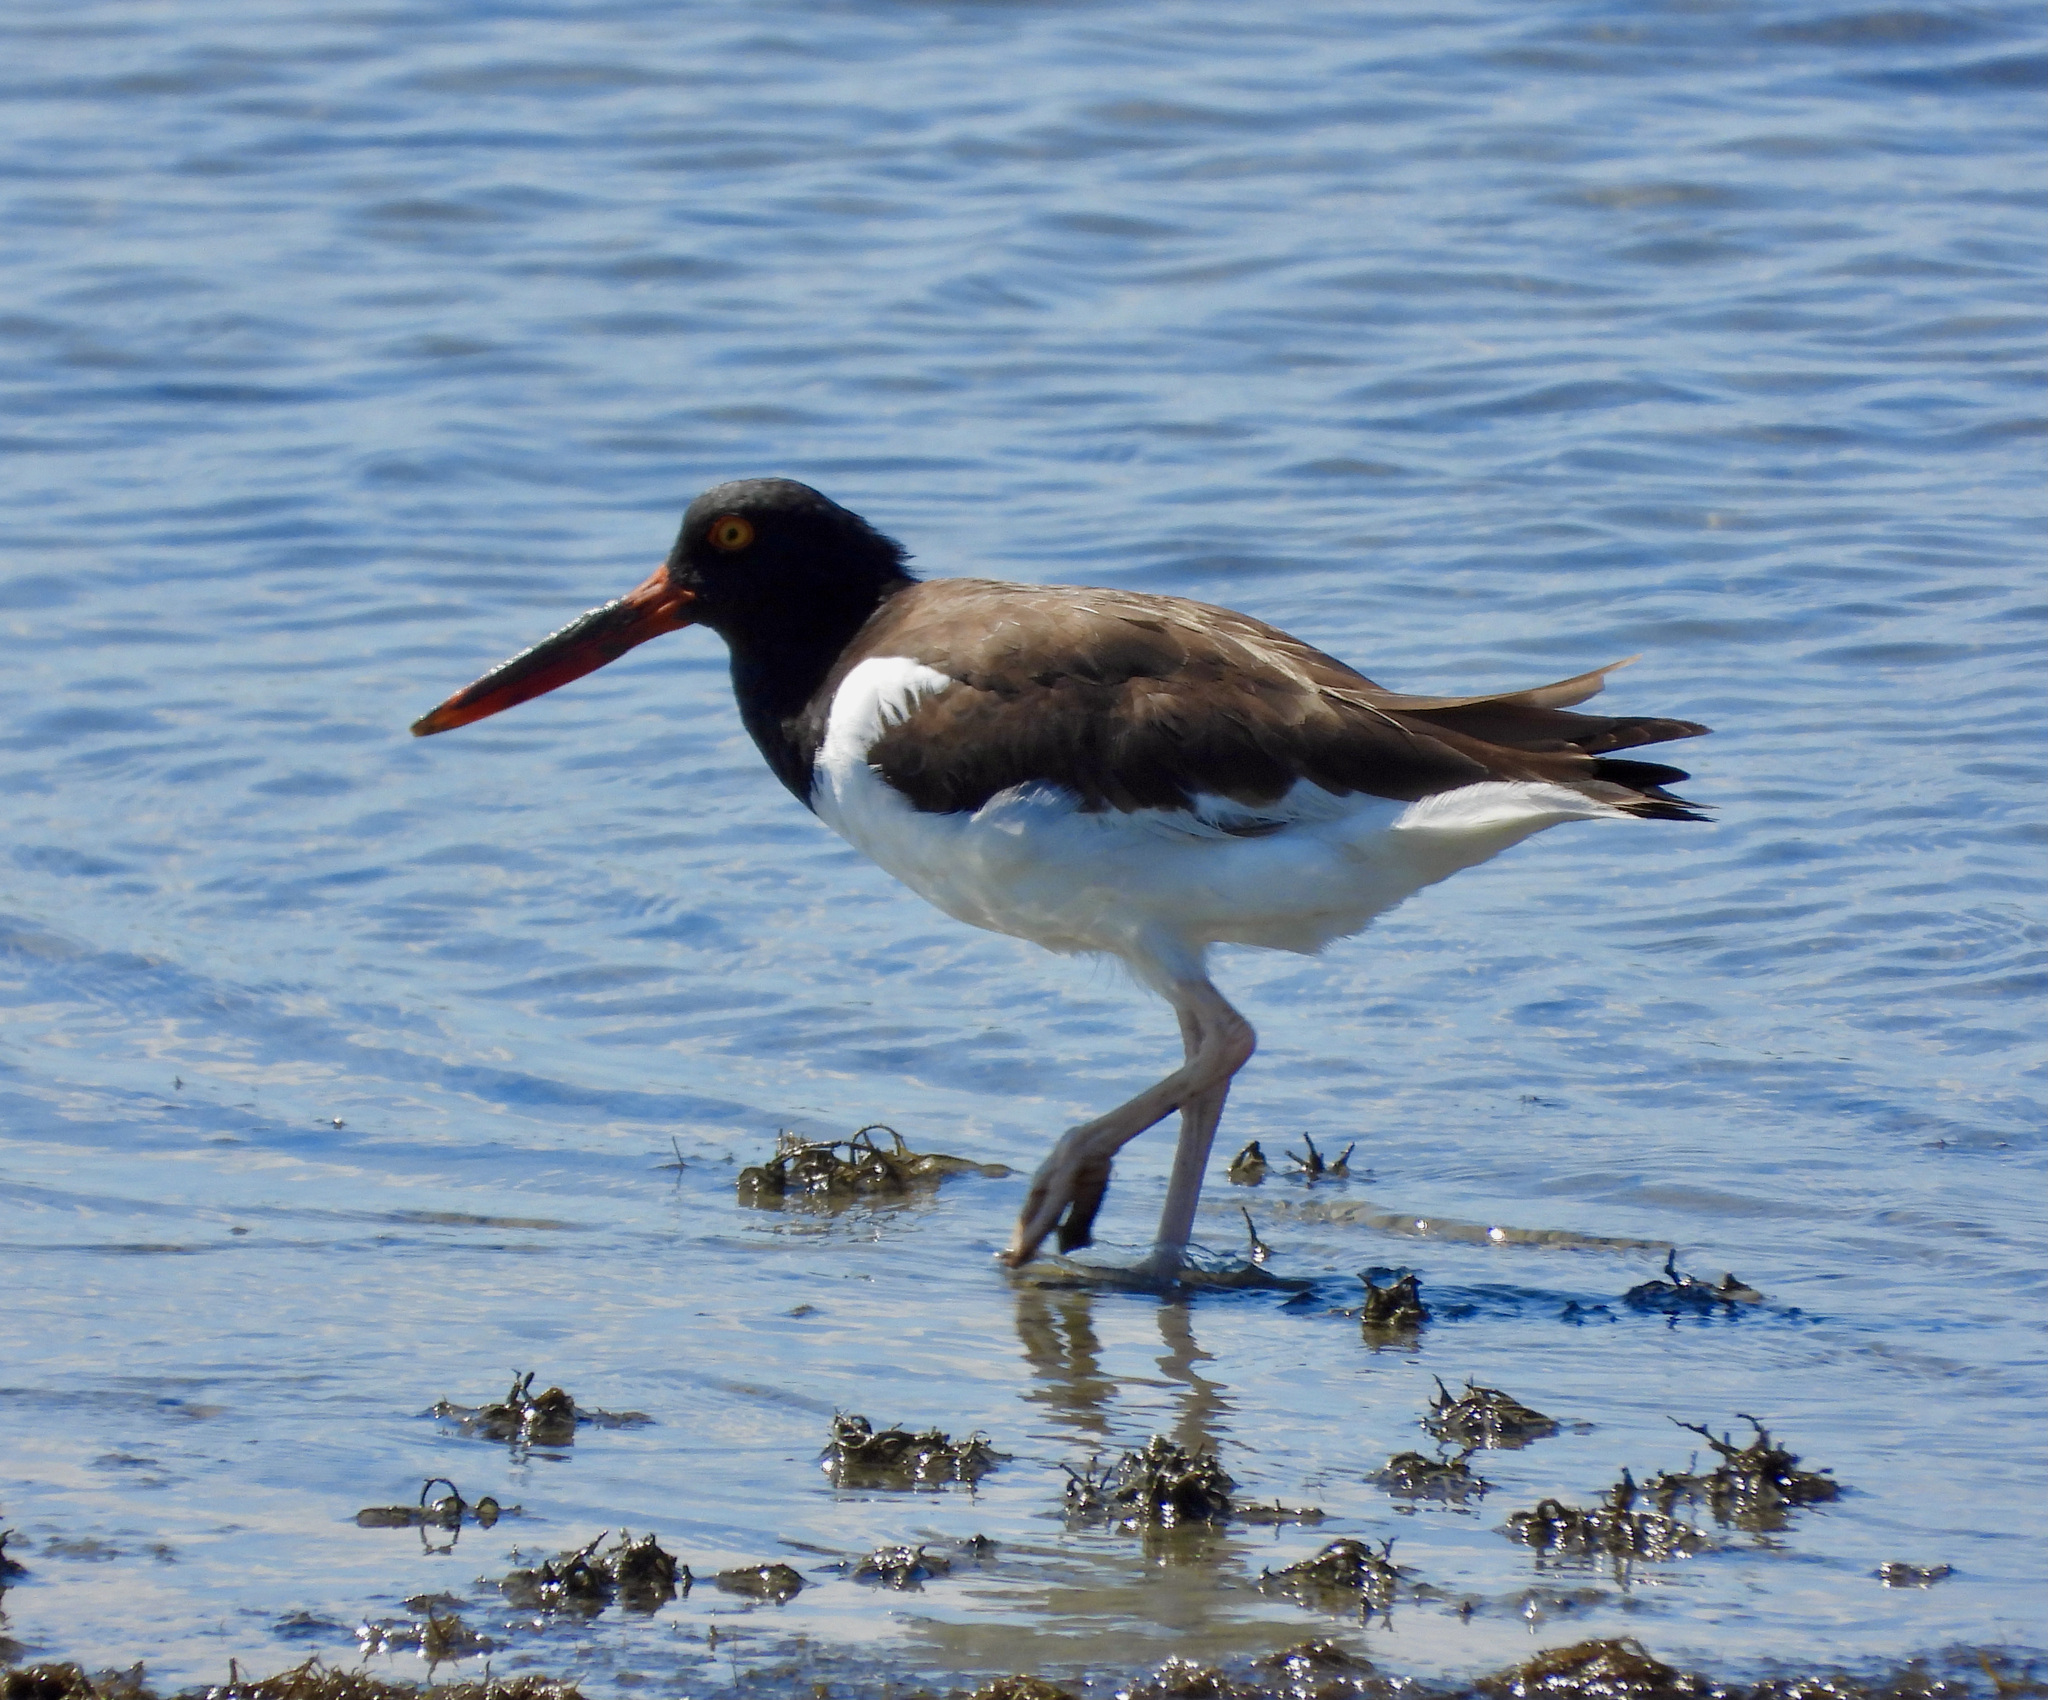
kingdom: Animalia
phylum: Chordata
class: Aves
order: Charadriiformes
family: Haematopodidae
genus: Haematopus
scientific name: Haematopus palliatus
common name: American oystercatcher
